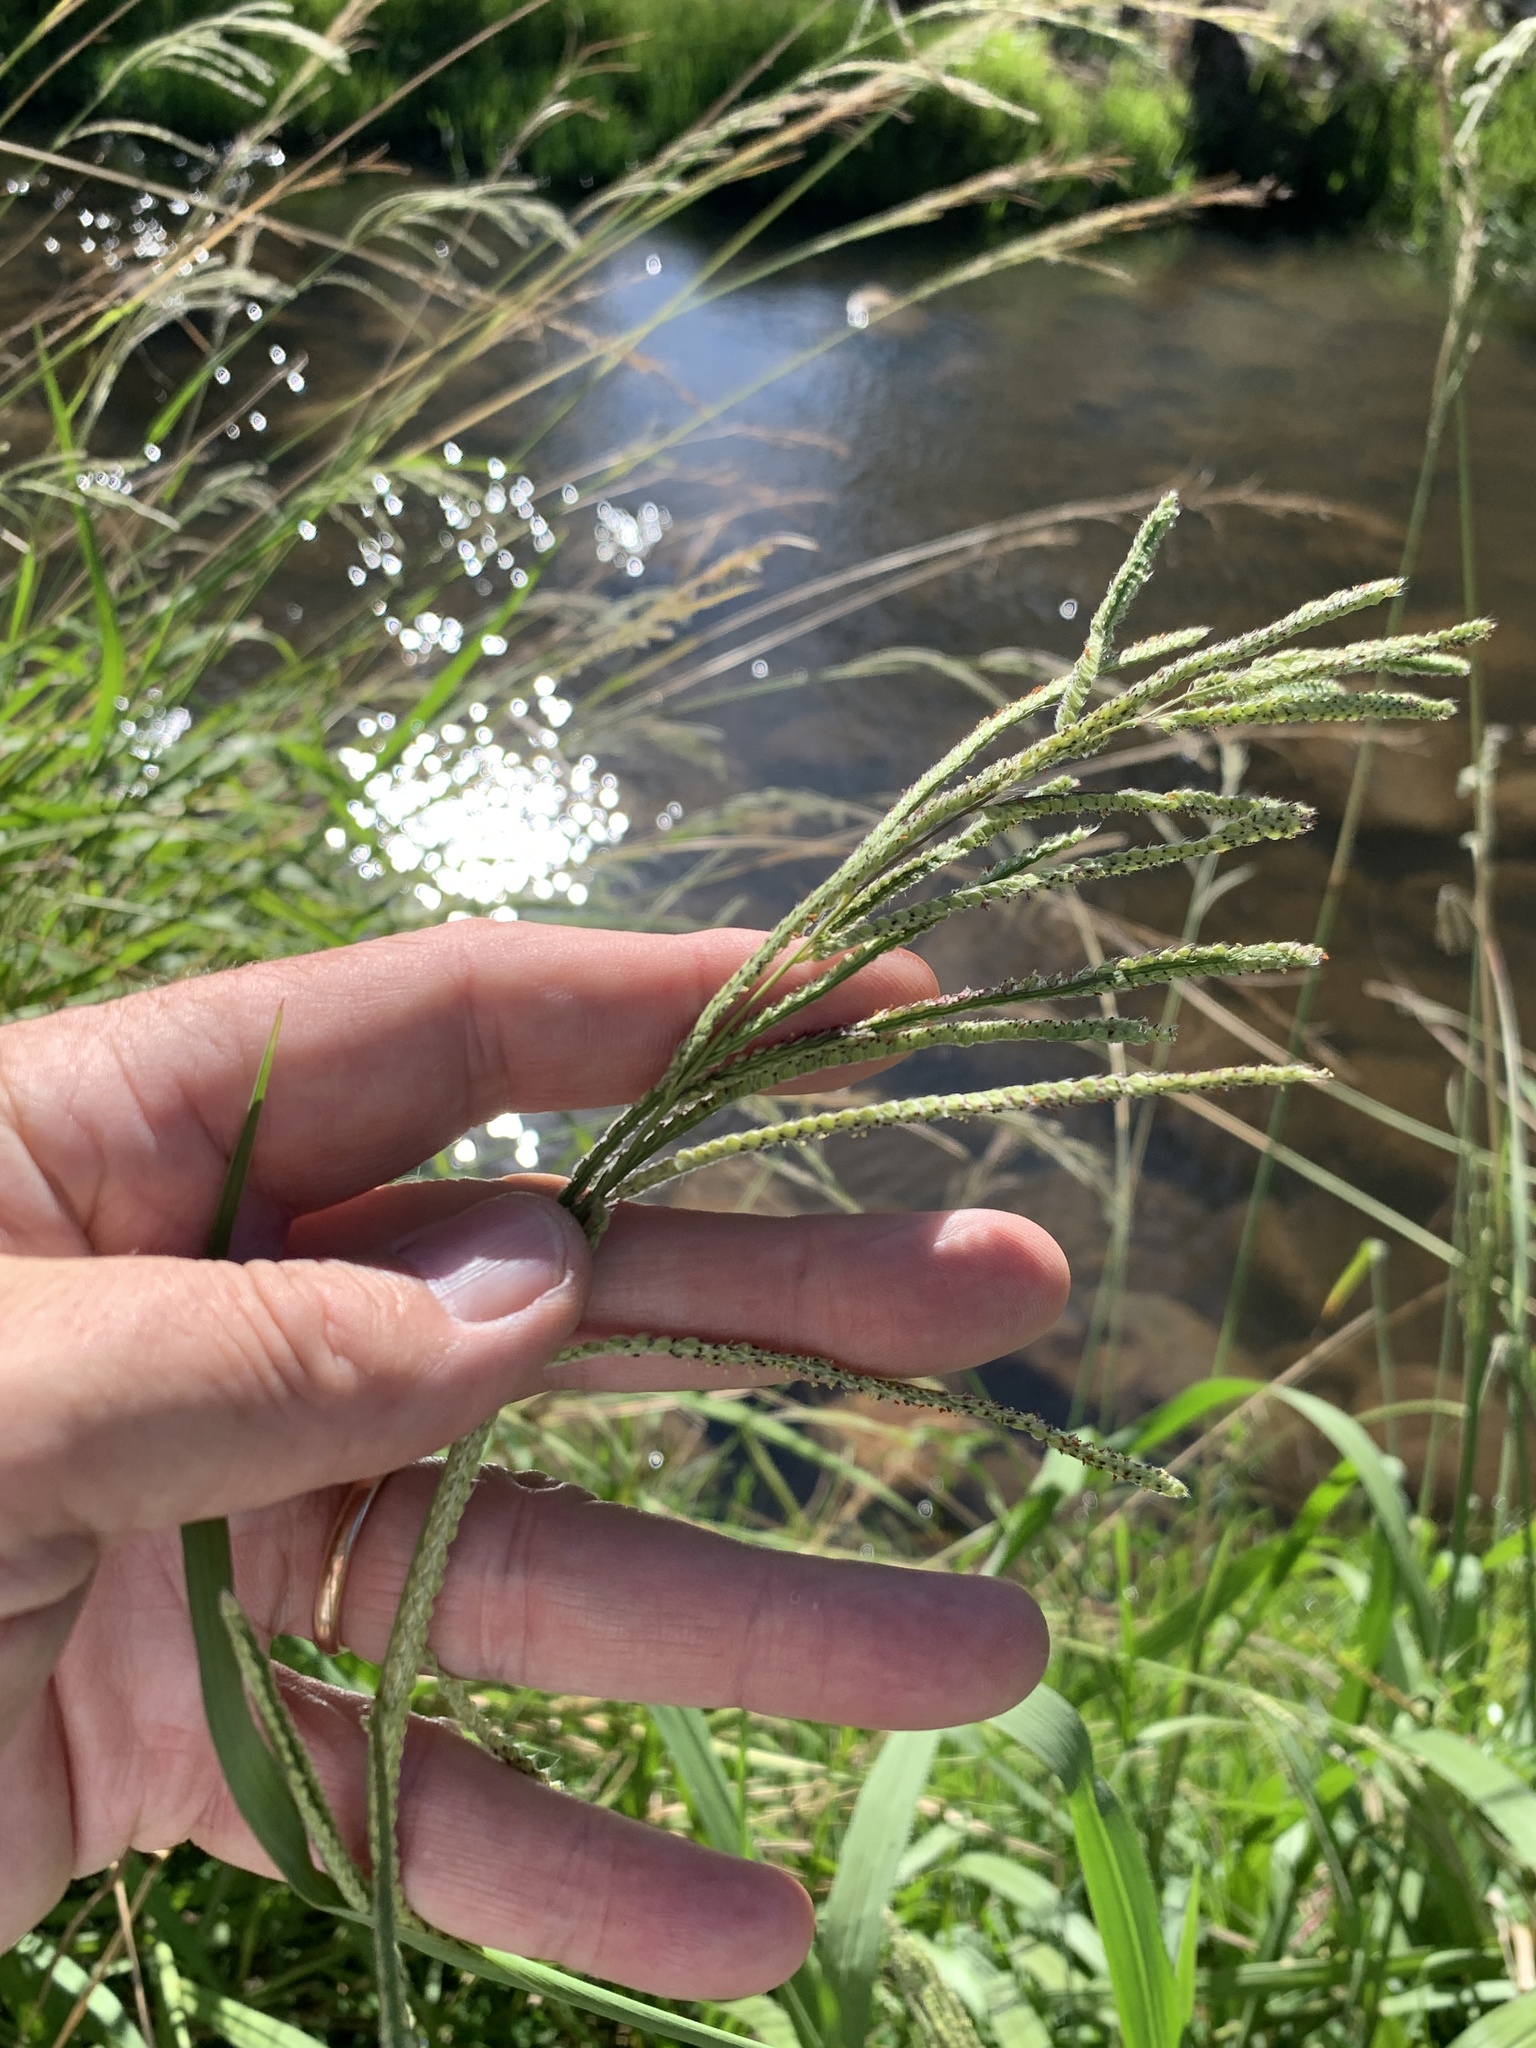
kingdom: Plantae
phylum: Tracheophyta
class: Liliopsida
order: Poales
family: Poaceae
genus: Paspalum
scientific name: Paspalum urvillei
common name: Vasey's grass
